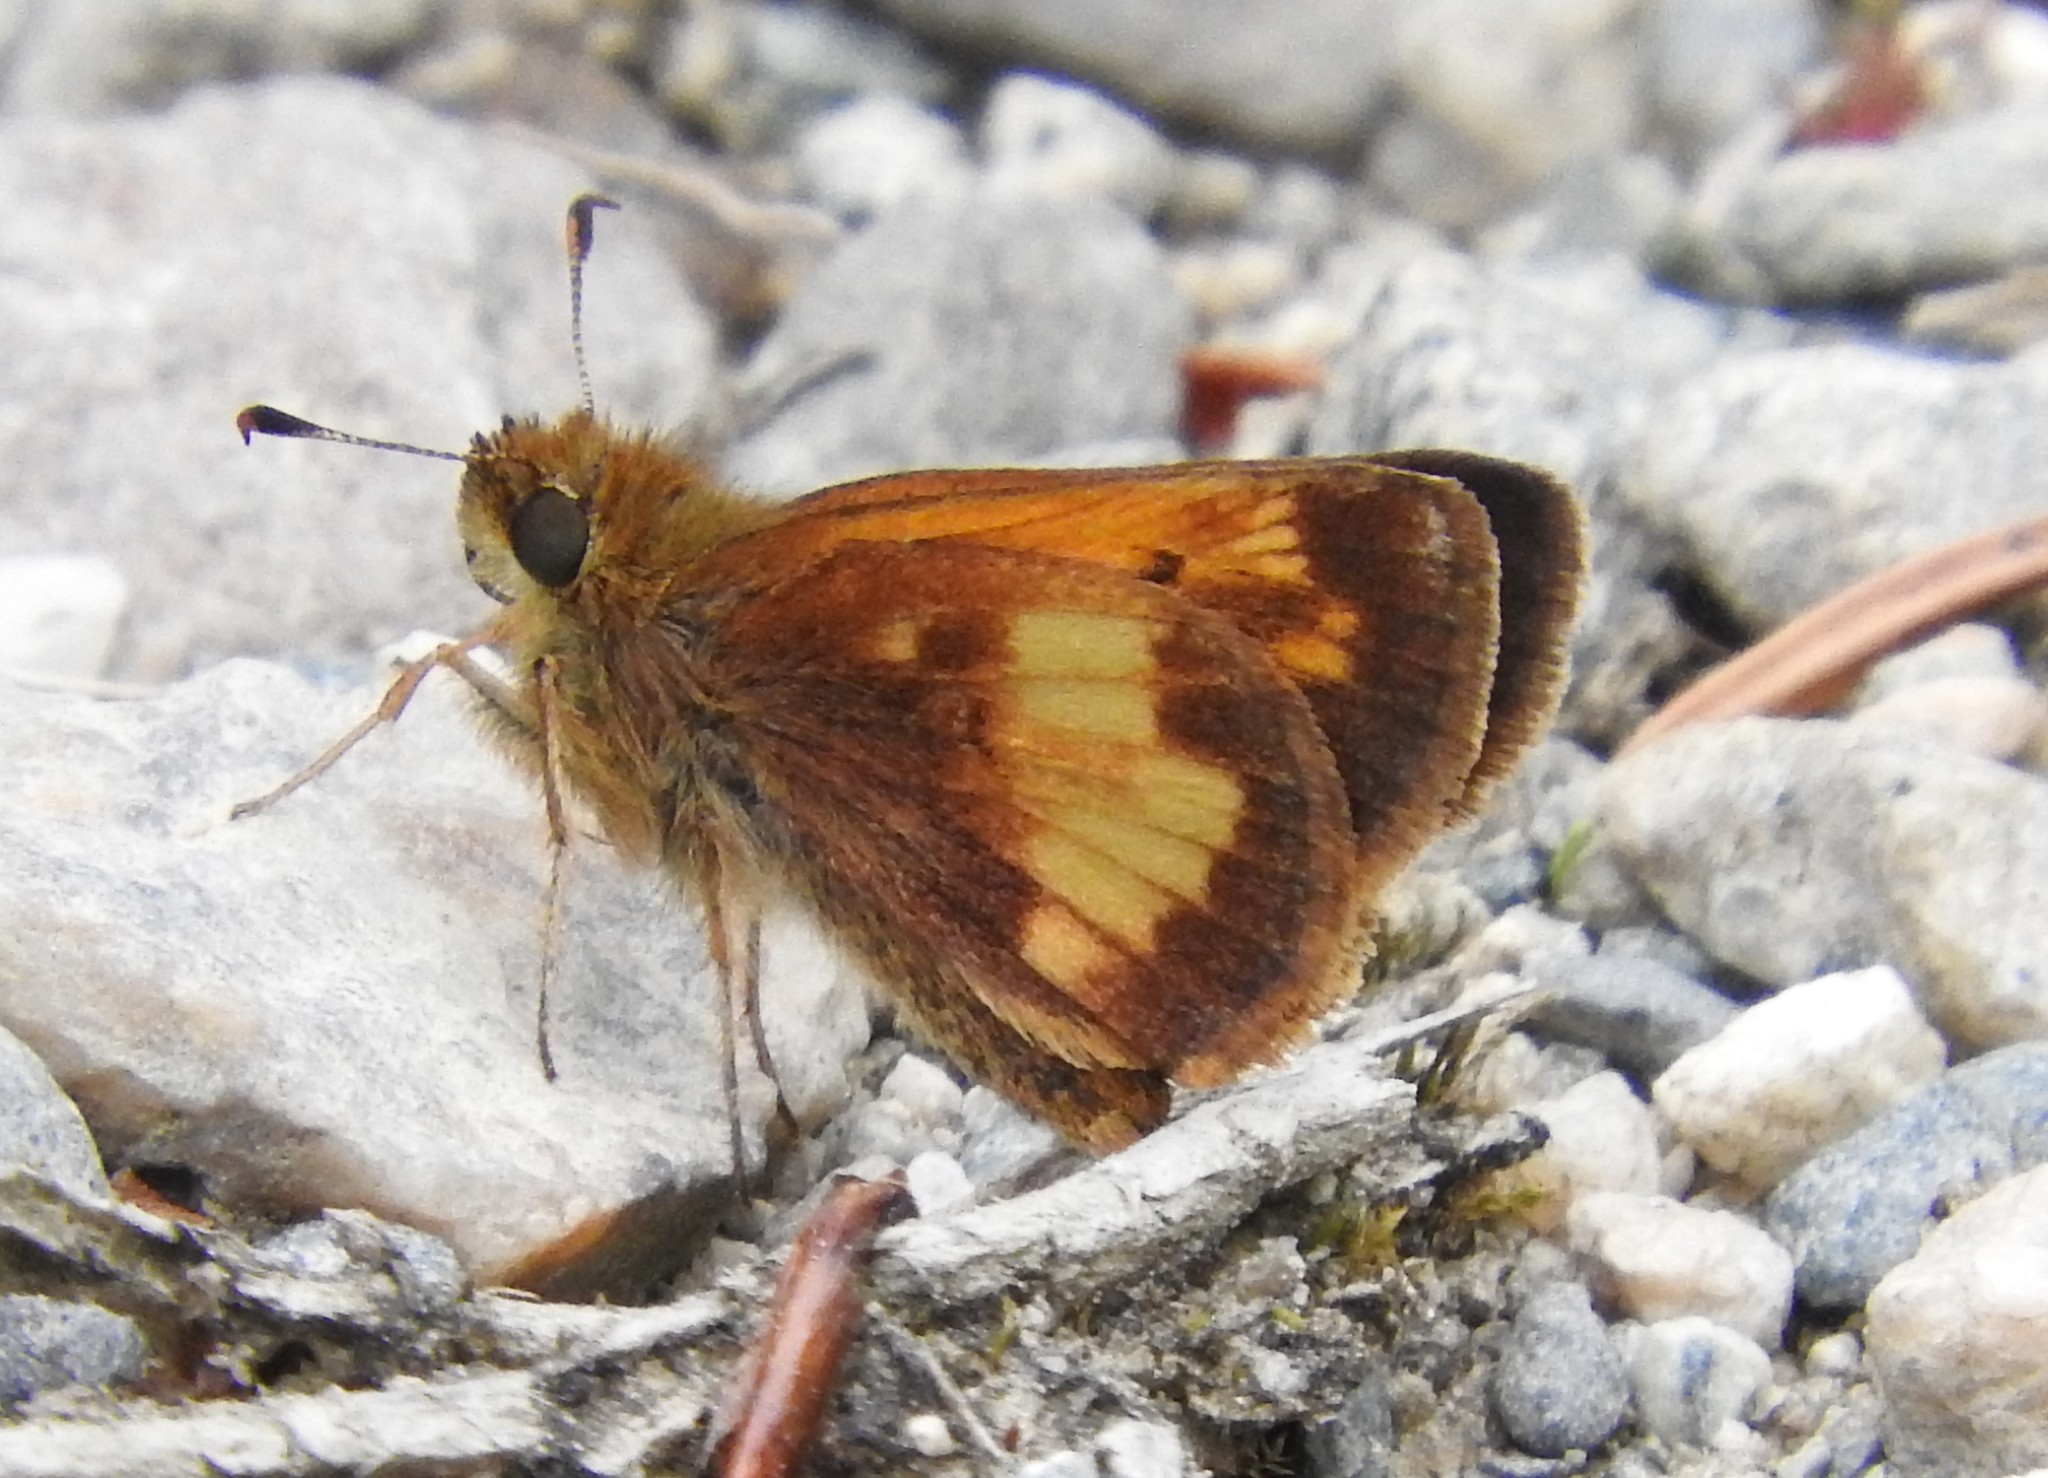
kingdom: Animalia
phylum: Arthropoda
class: Insecta
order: Lepidoptera
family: Hesperiidae
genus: Lon
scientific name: Lon hobomok
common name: Hobomok skipper
